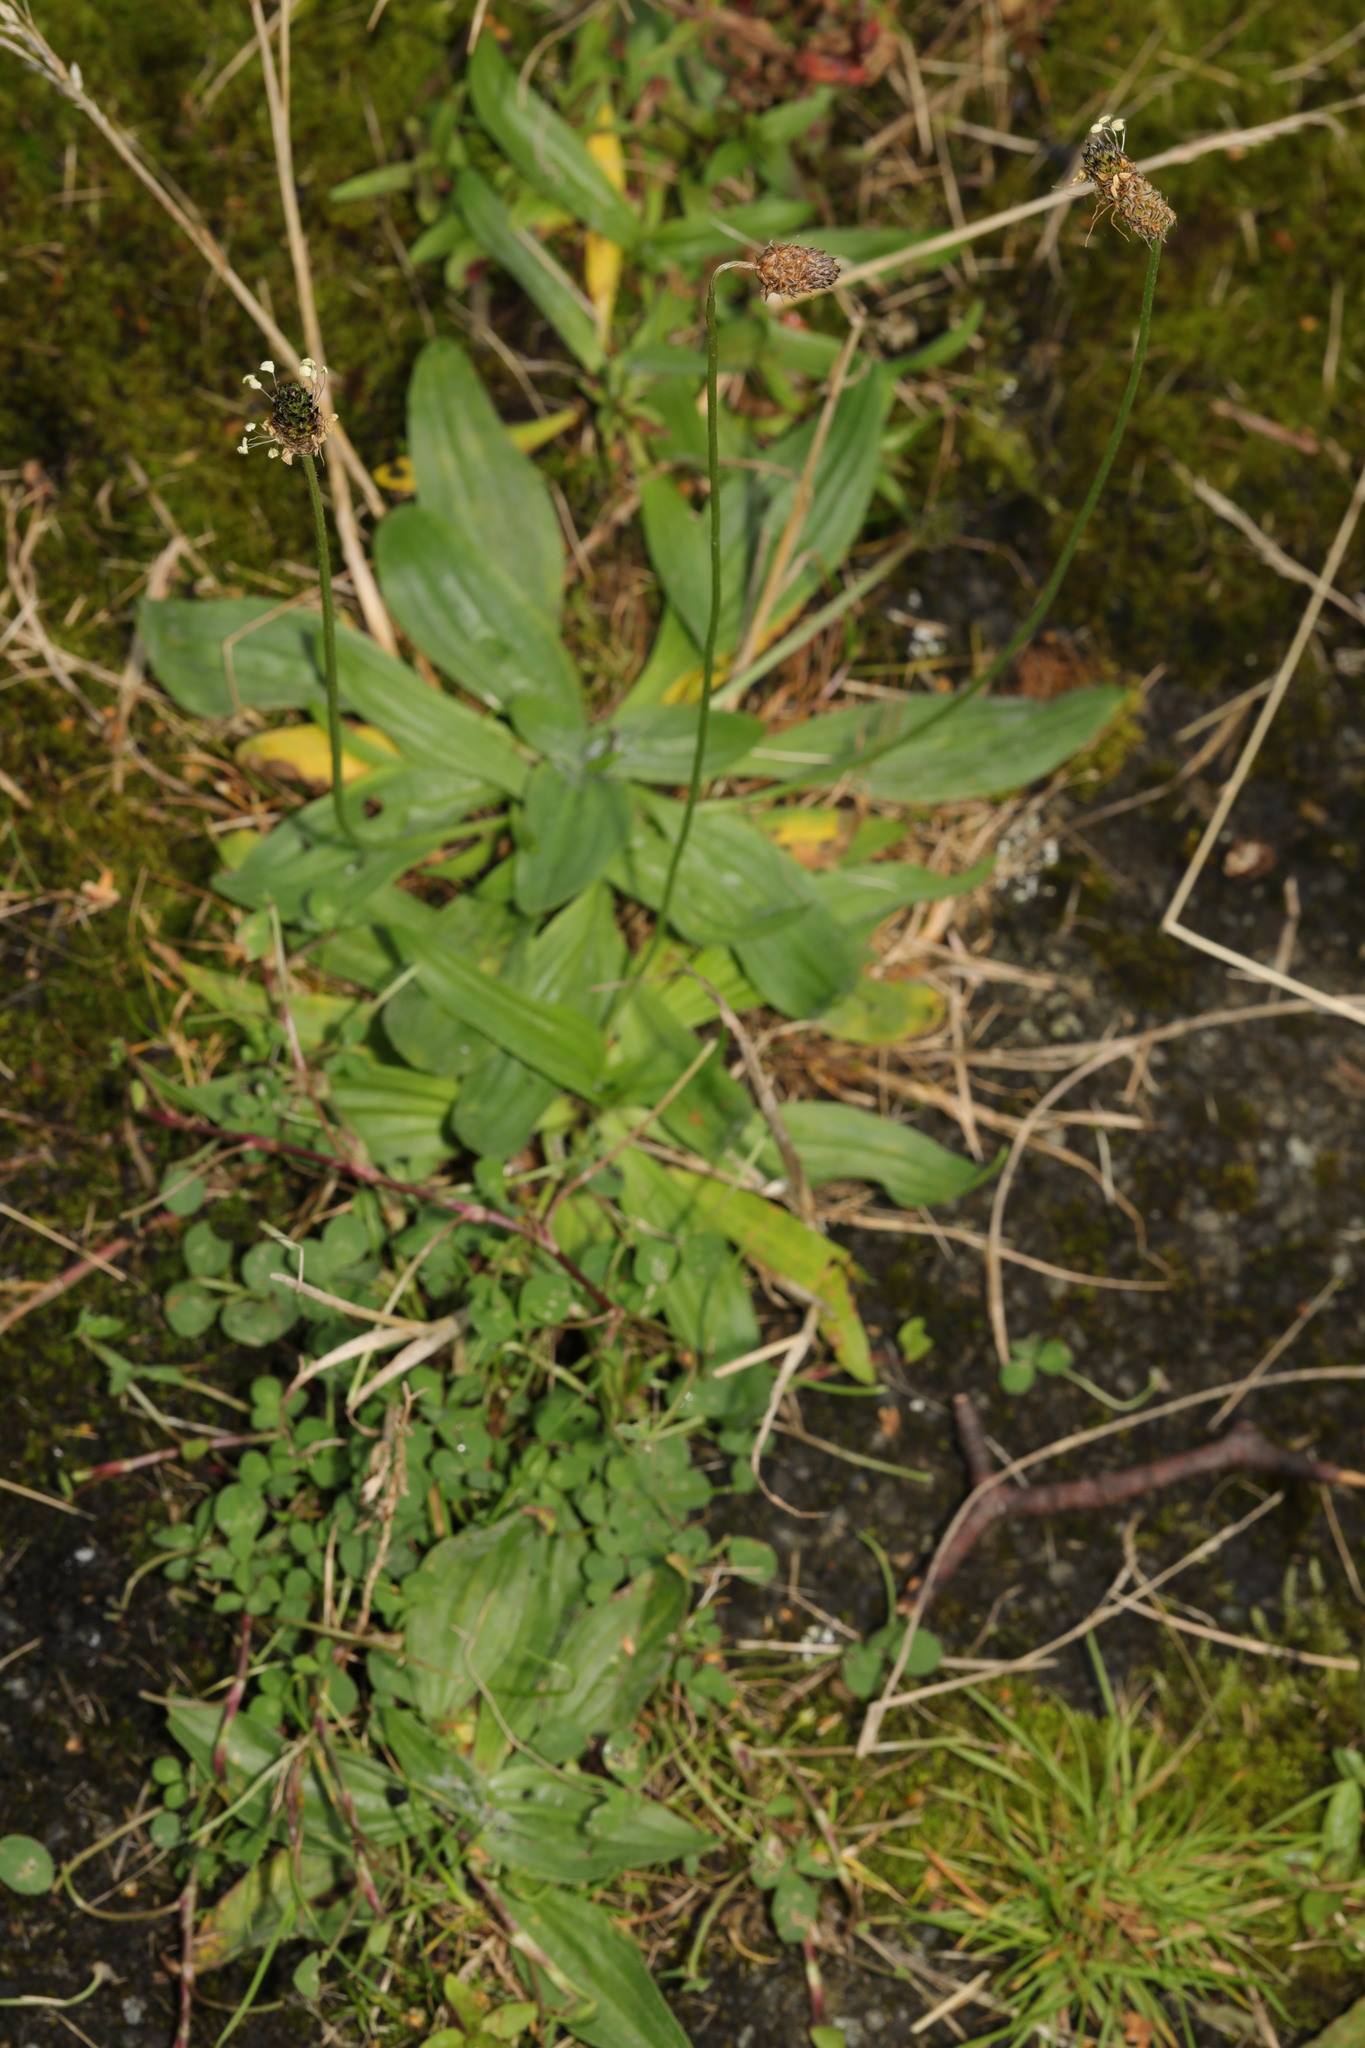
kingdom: Plantae
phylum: Tracheophyta
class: Magnoliopsida
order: Lamiales
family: Plantaginaceae
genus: Plantago
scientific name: Plantago lanceolata
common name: Ribwort plantain
